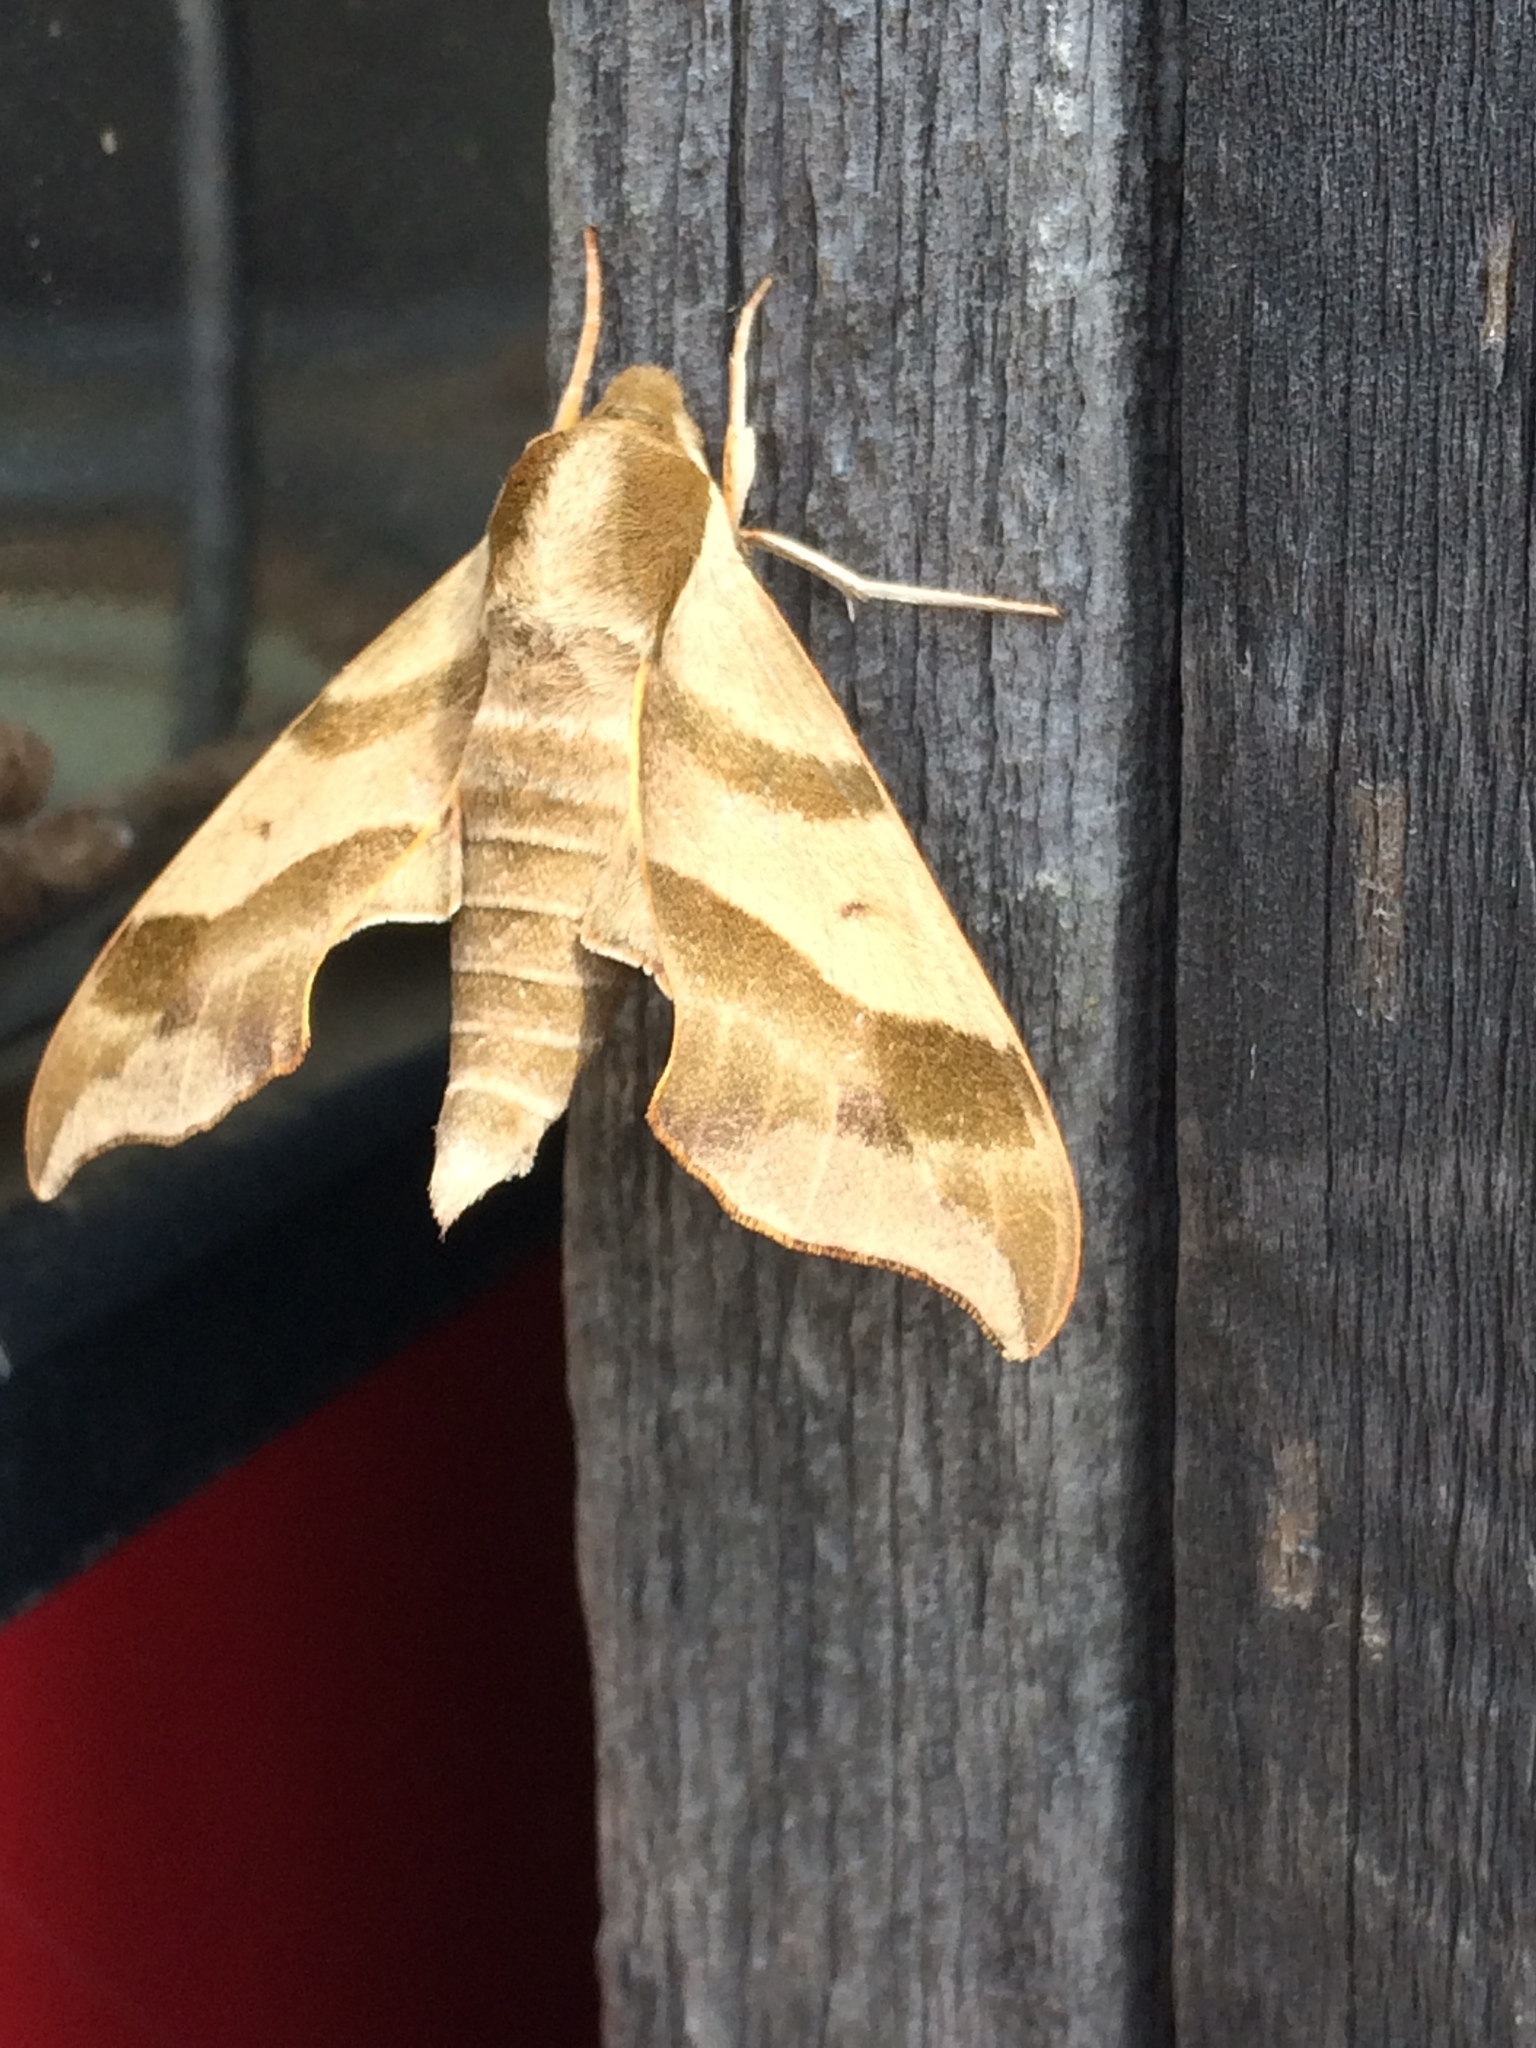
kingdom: Animalia
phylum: Arthropoda
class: Insecta
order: Lepidoptera
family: Sphingidae
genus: Darapsa
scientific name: Darapsa myron
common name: Hog sphinx
